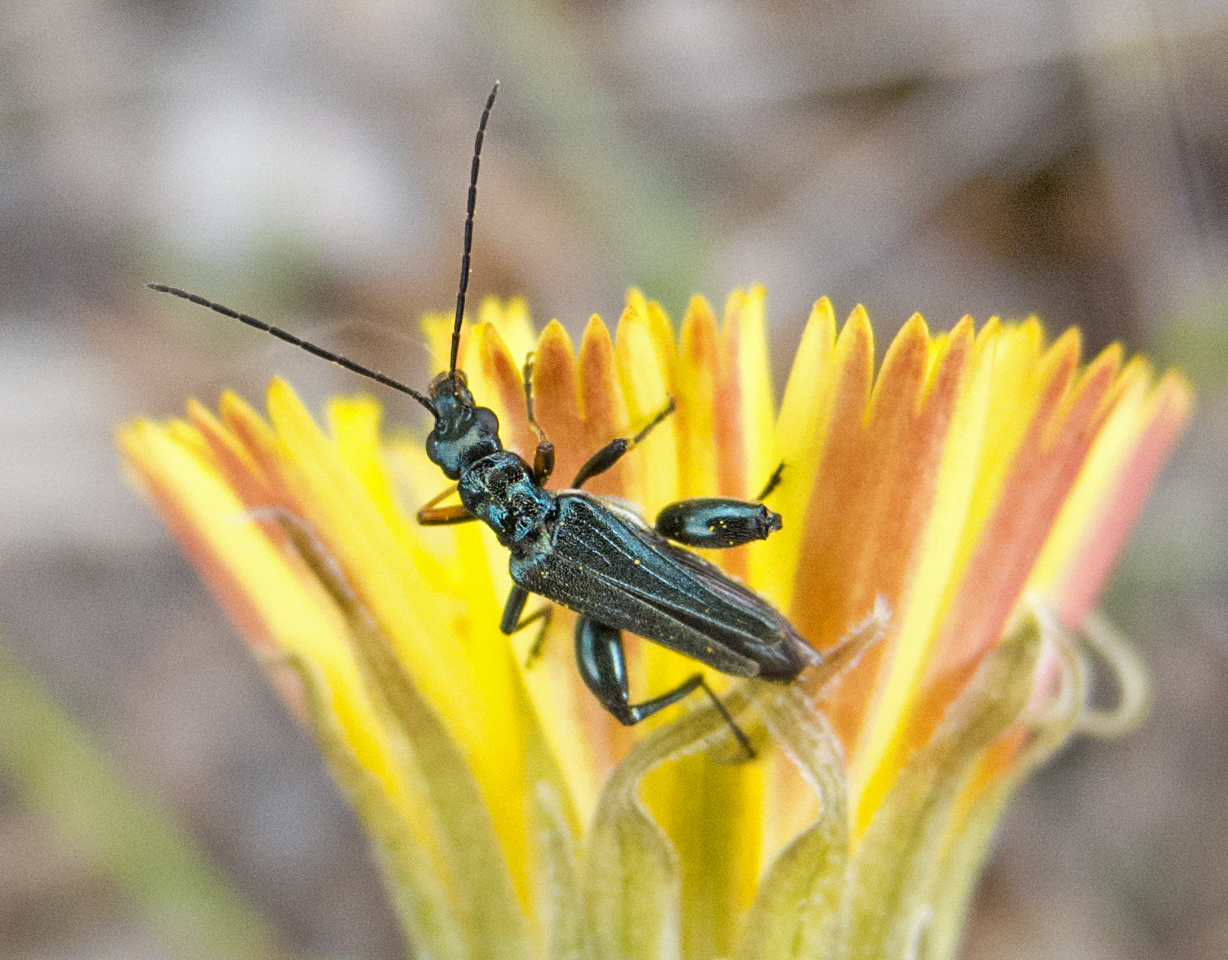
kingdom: Animalia
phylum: Arthropoda
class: Insecta
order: Coleoptera
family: Oedemeridae
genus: Oedemera
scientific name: Oedemera flavipes
